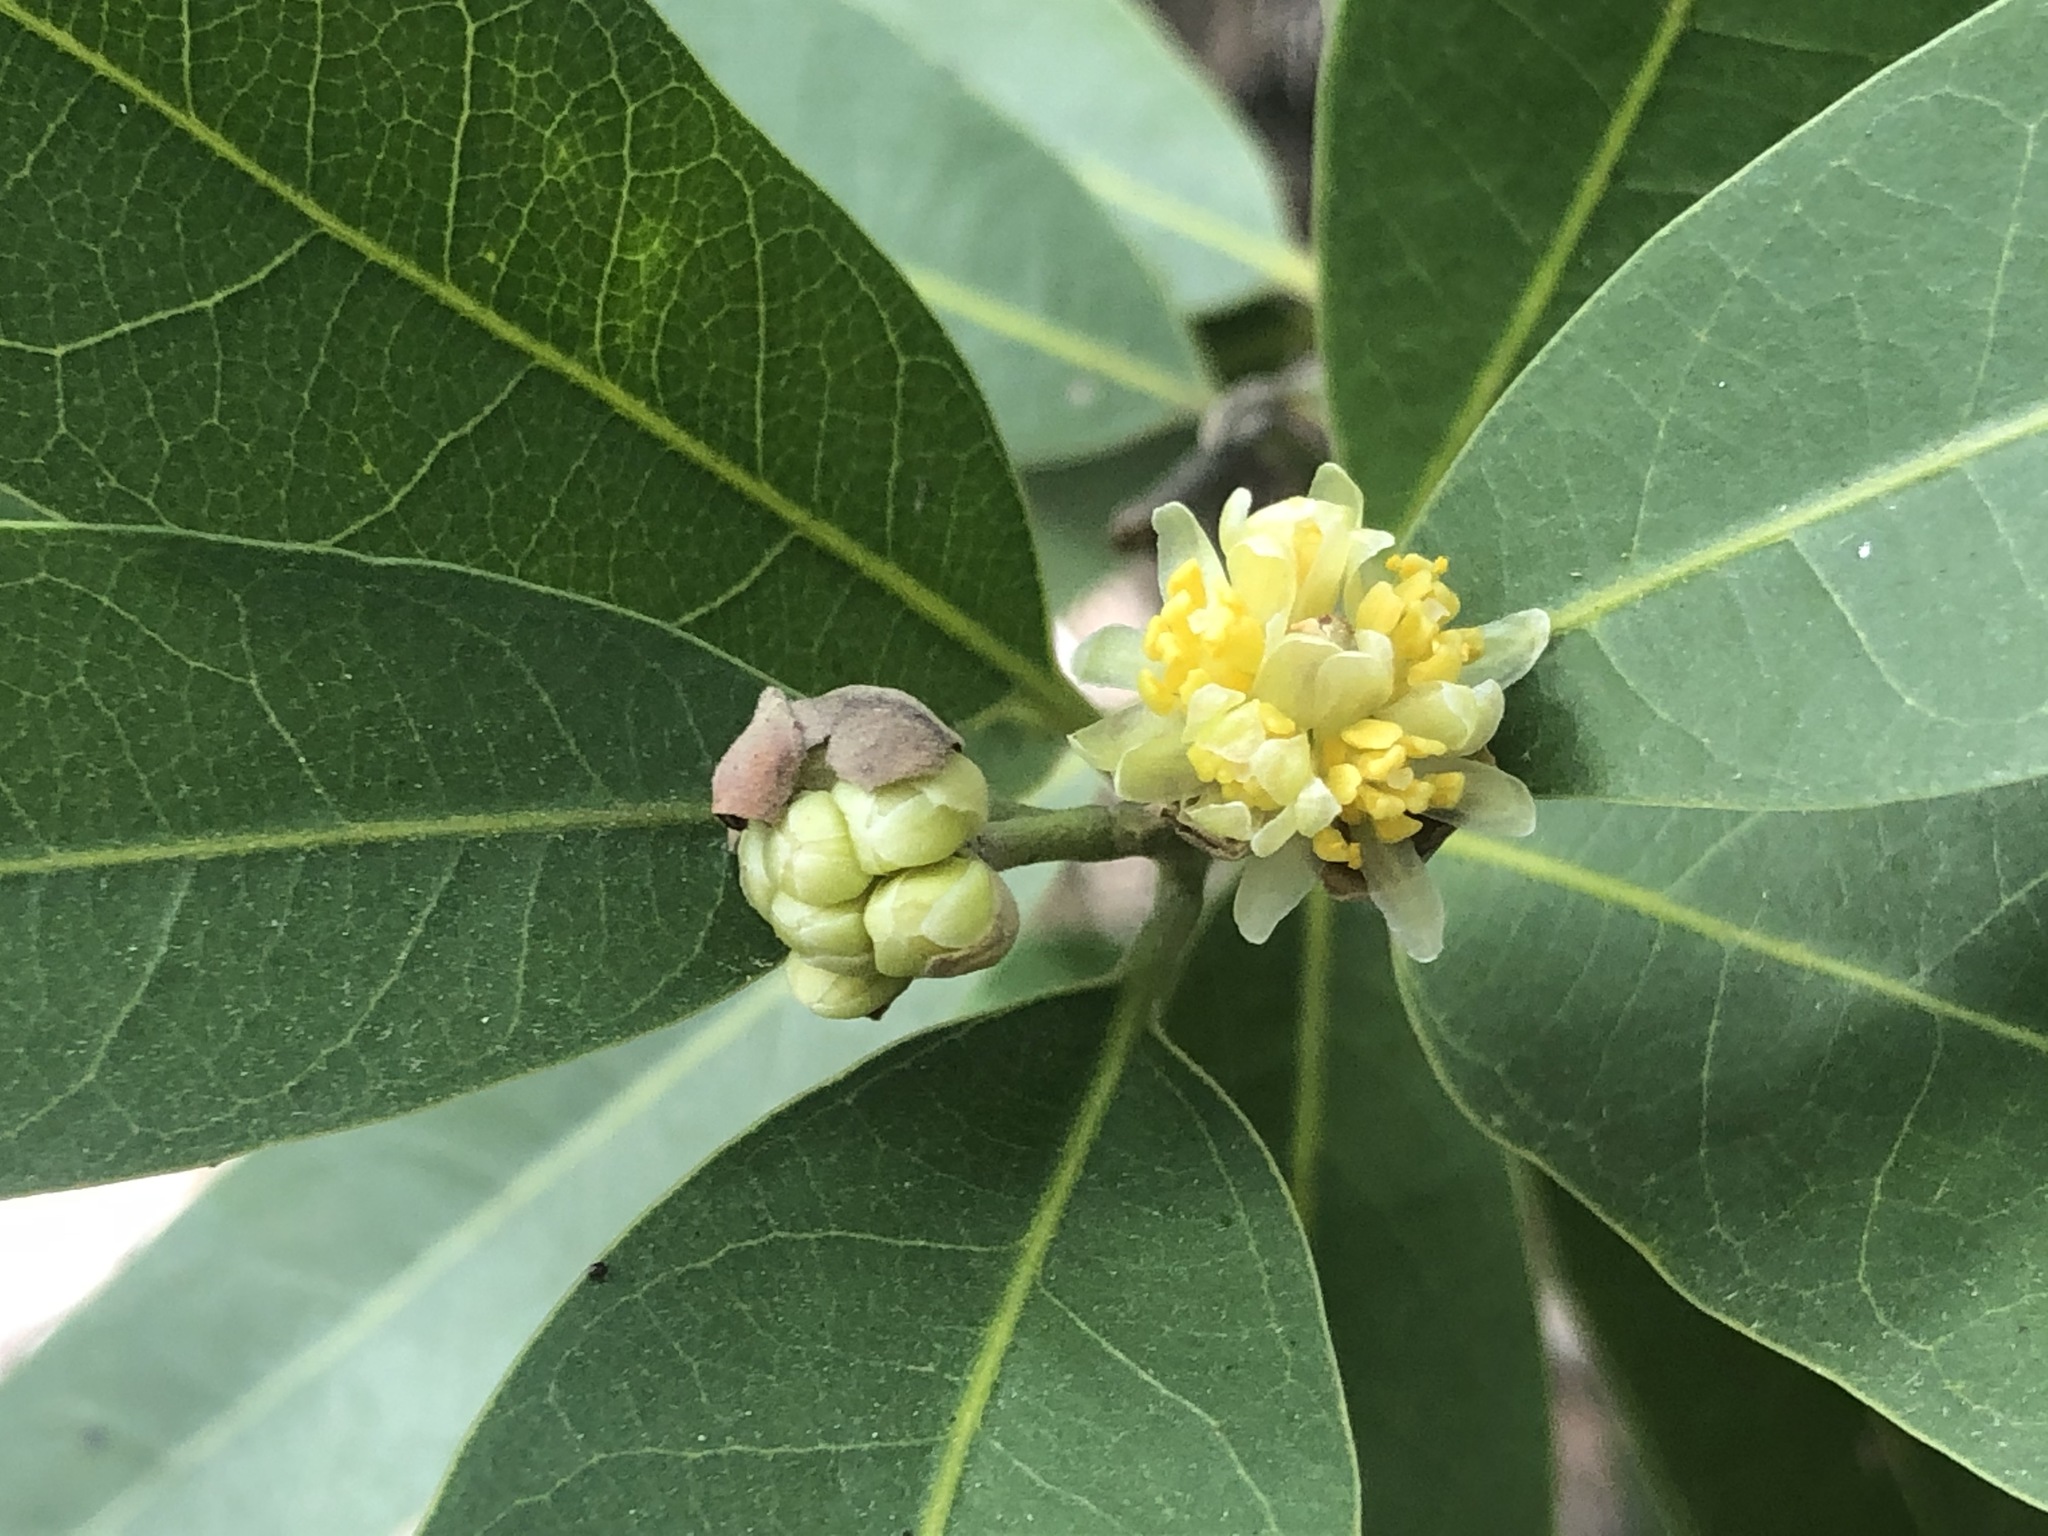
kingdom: Plantae
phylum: Tracheophyta
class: Magnoliopsida
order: Laurales
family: Lauraceae
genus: Umbellularia
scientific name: Umbellularia californica
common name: California bay
